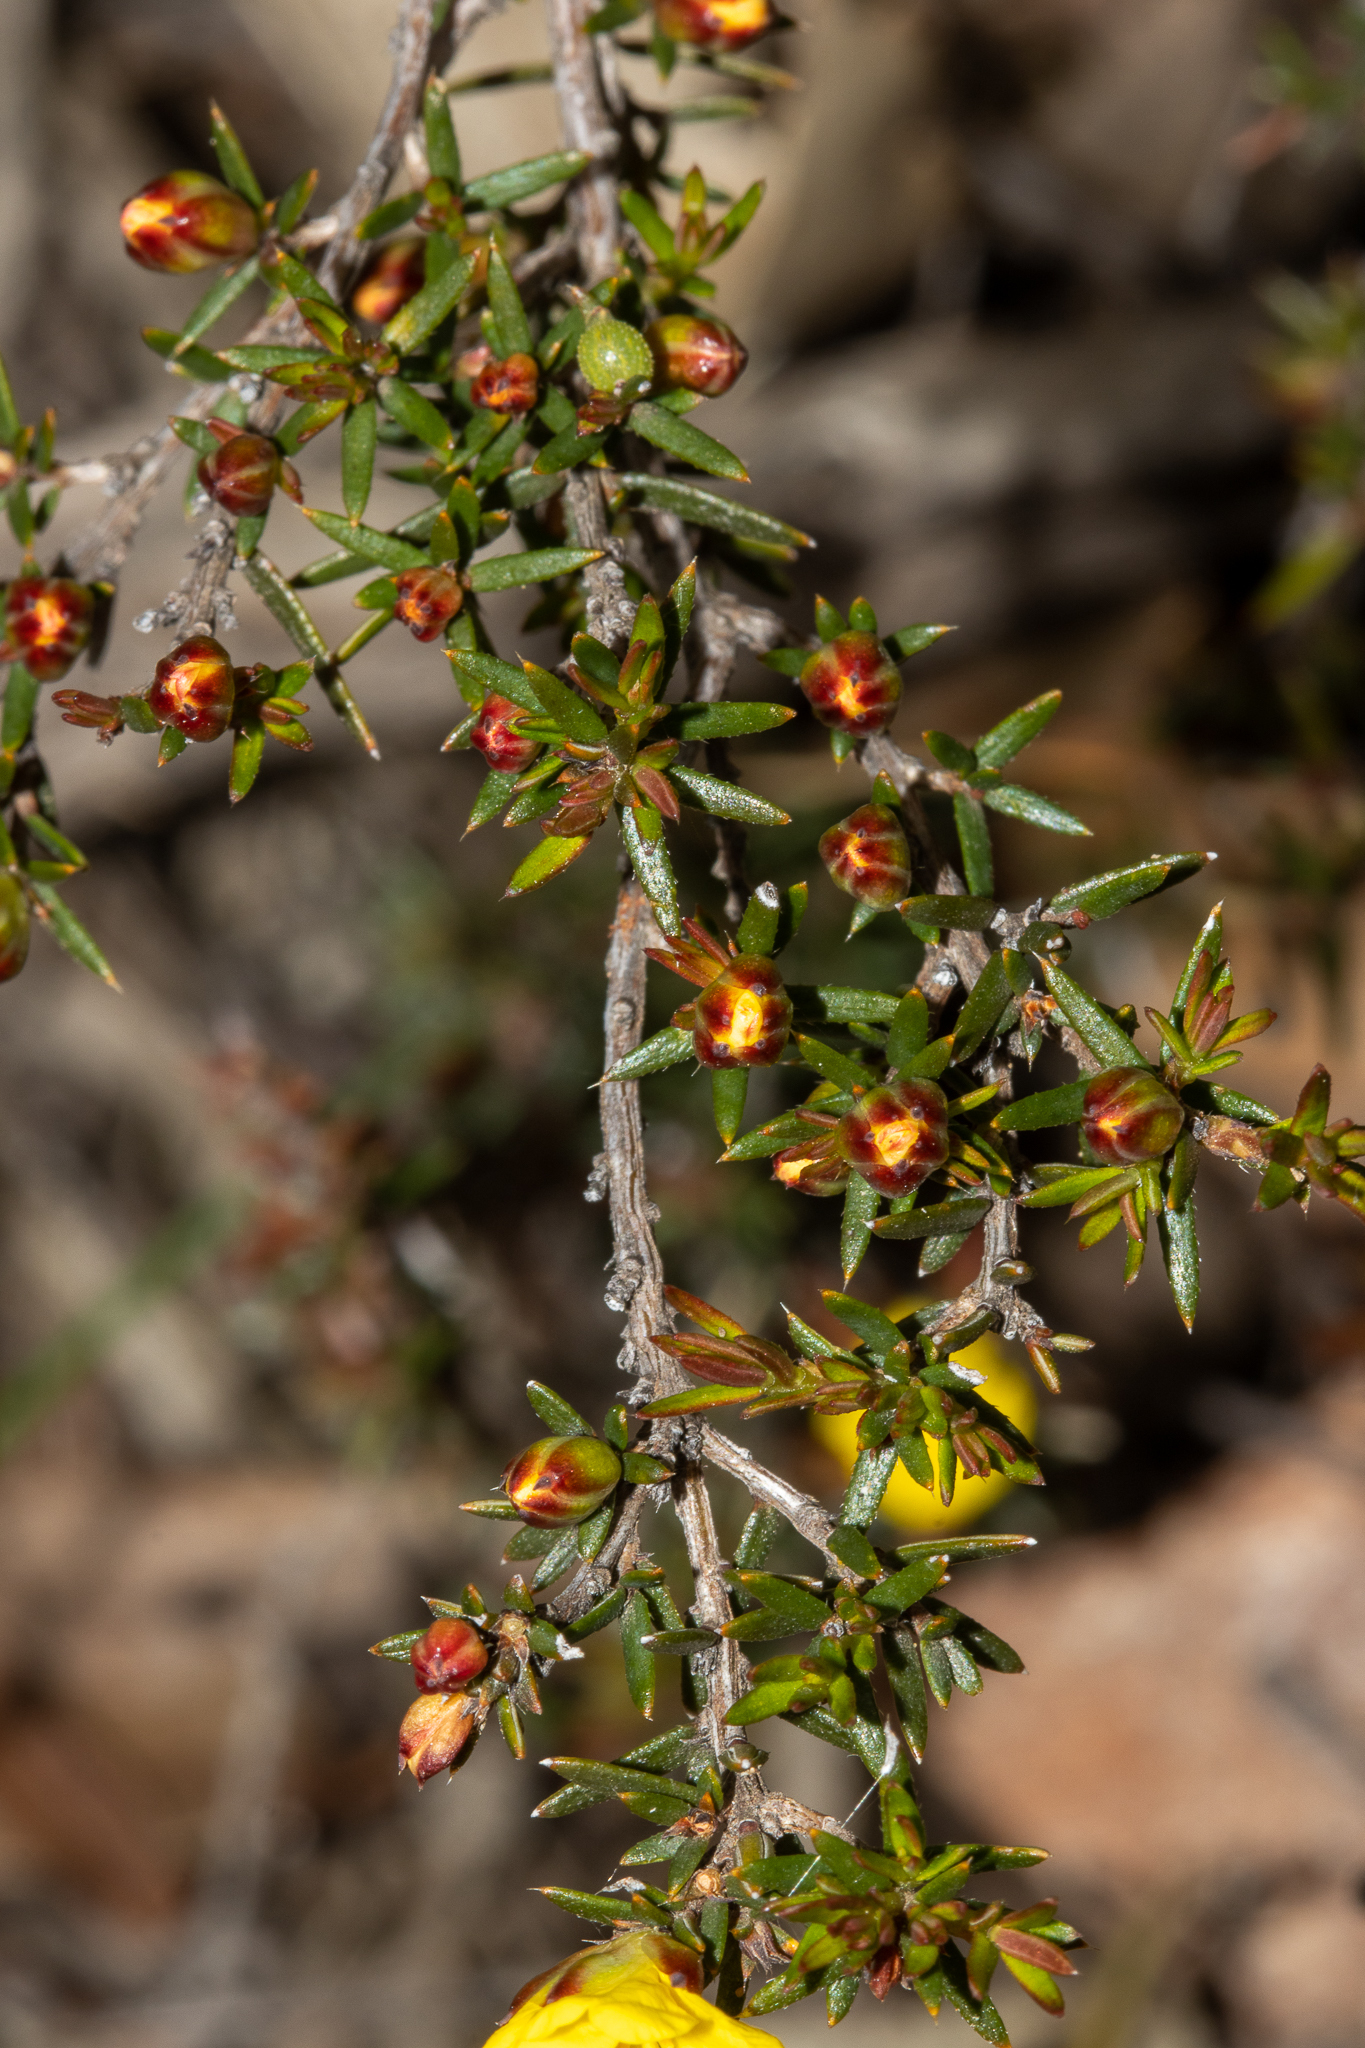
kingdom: Plantae
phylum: Tracheophyta
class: Magnoliopsida
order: Dilleniales
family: Dilleniaceae
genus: Hibbertia
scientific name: Hibbertia exutiacies
